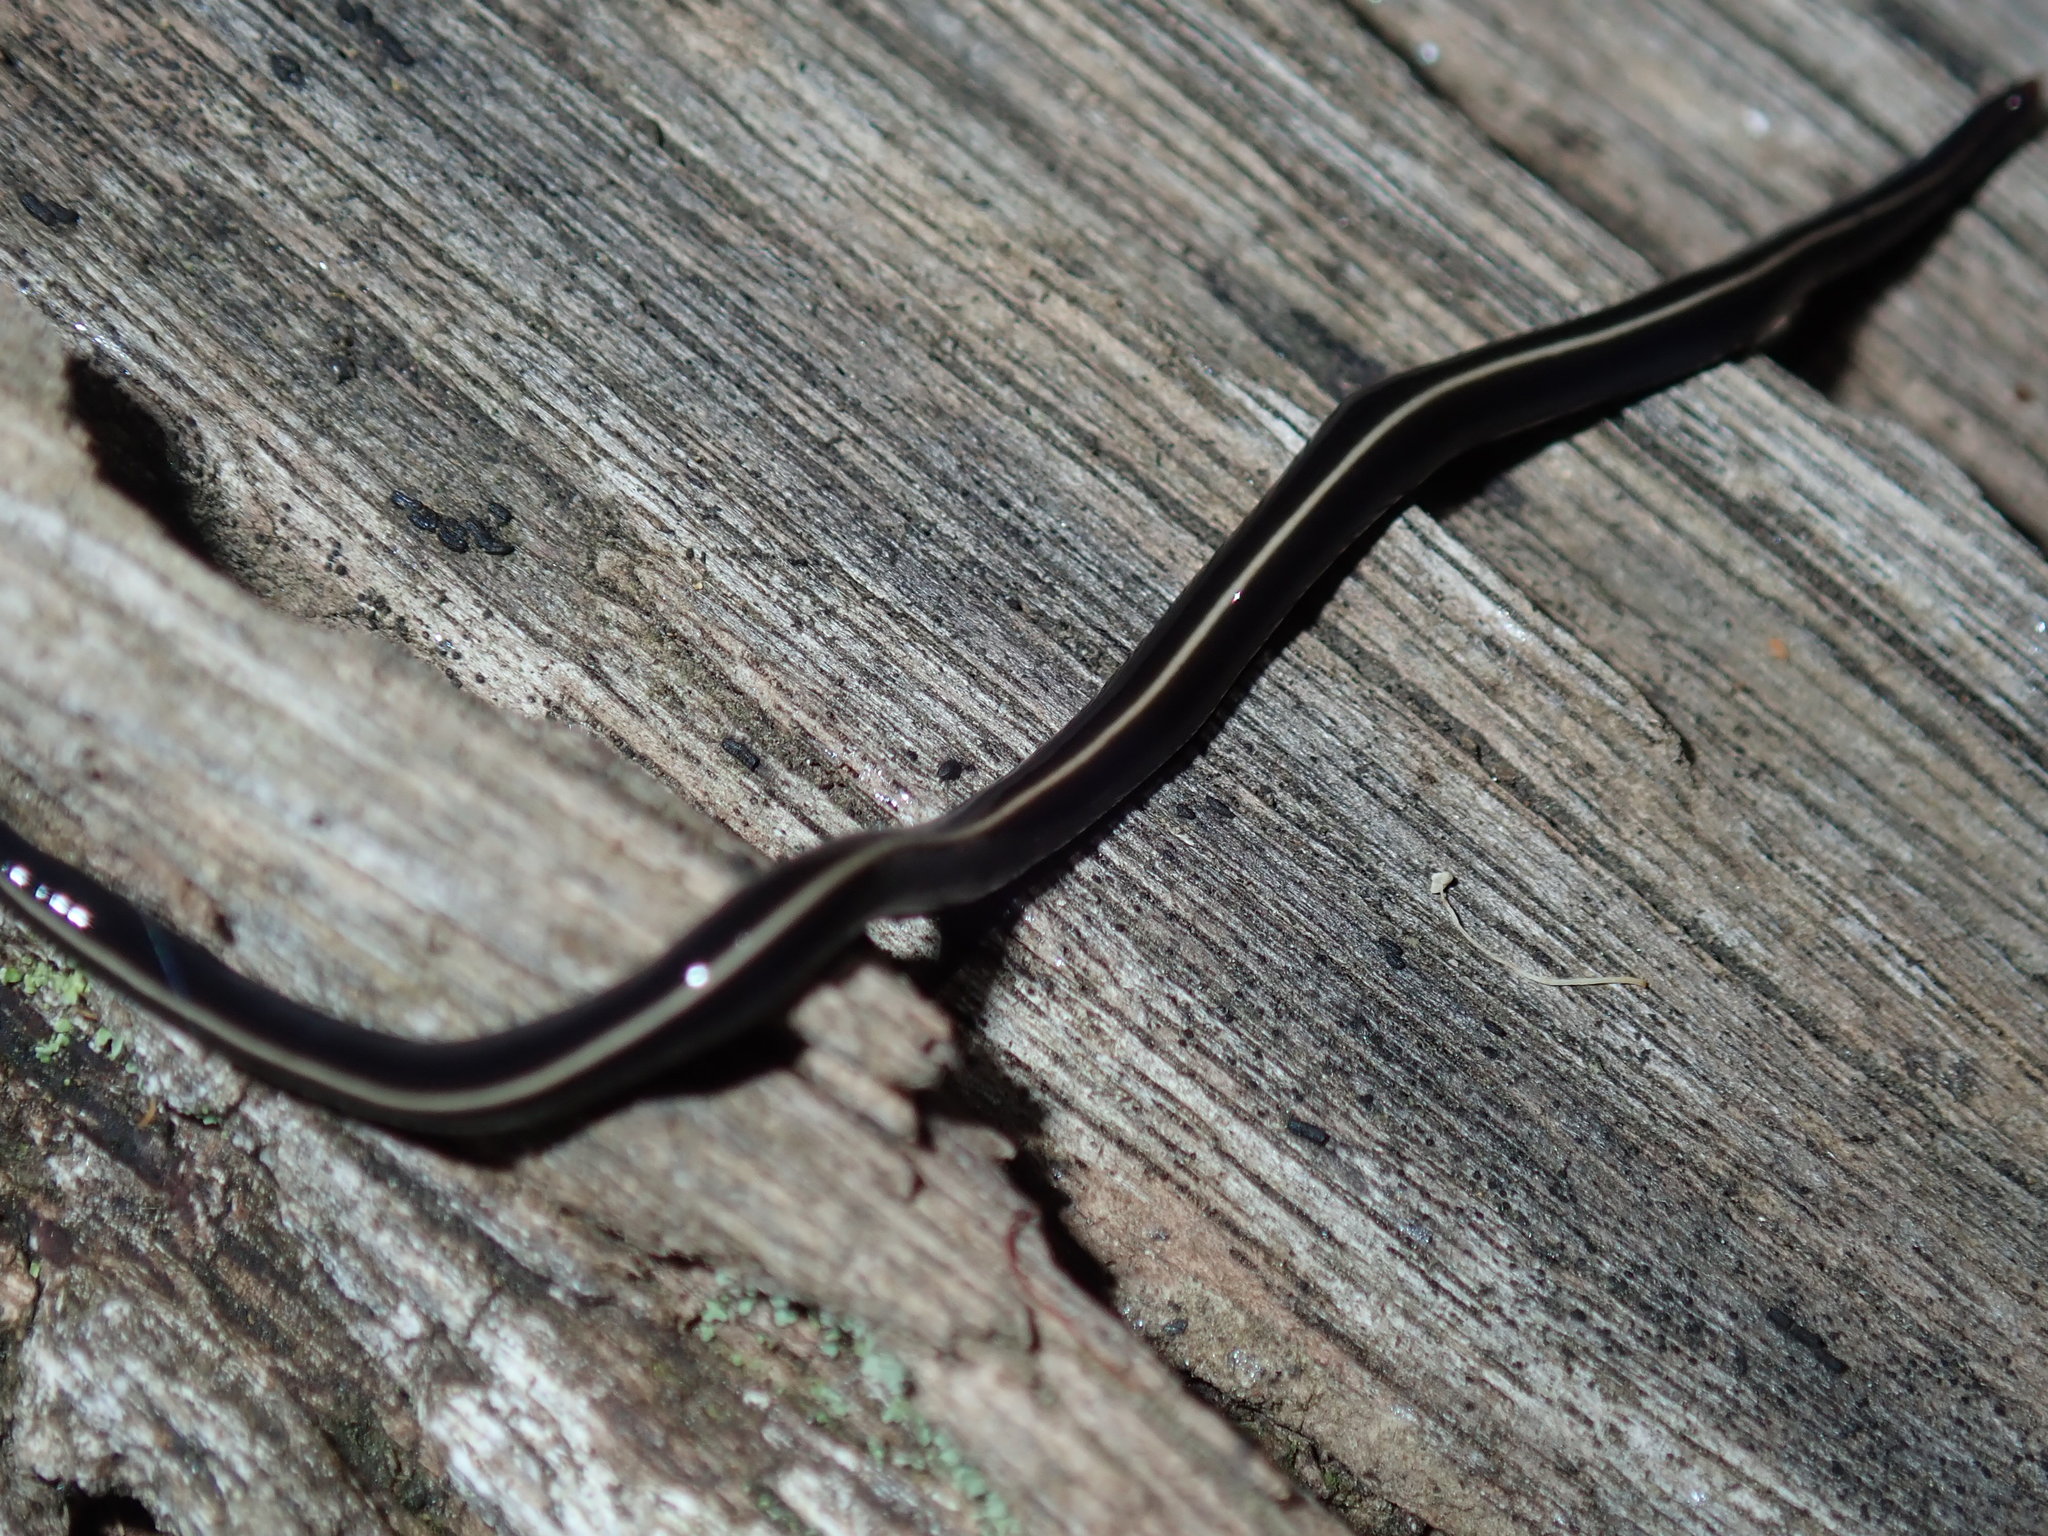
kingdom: Animalia
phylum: Platyhelminthes
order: Tricladida
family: Geoplanidae
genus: Caenoplana
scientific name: Caenoplana coerulea
